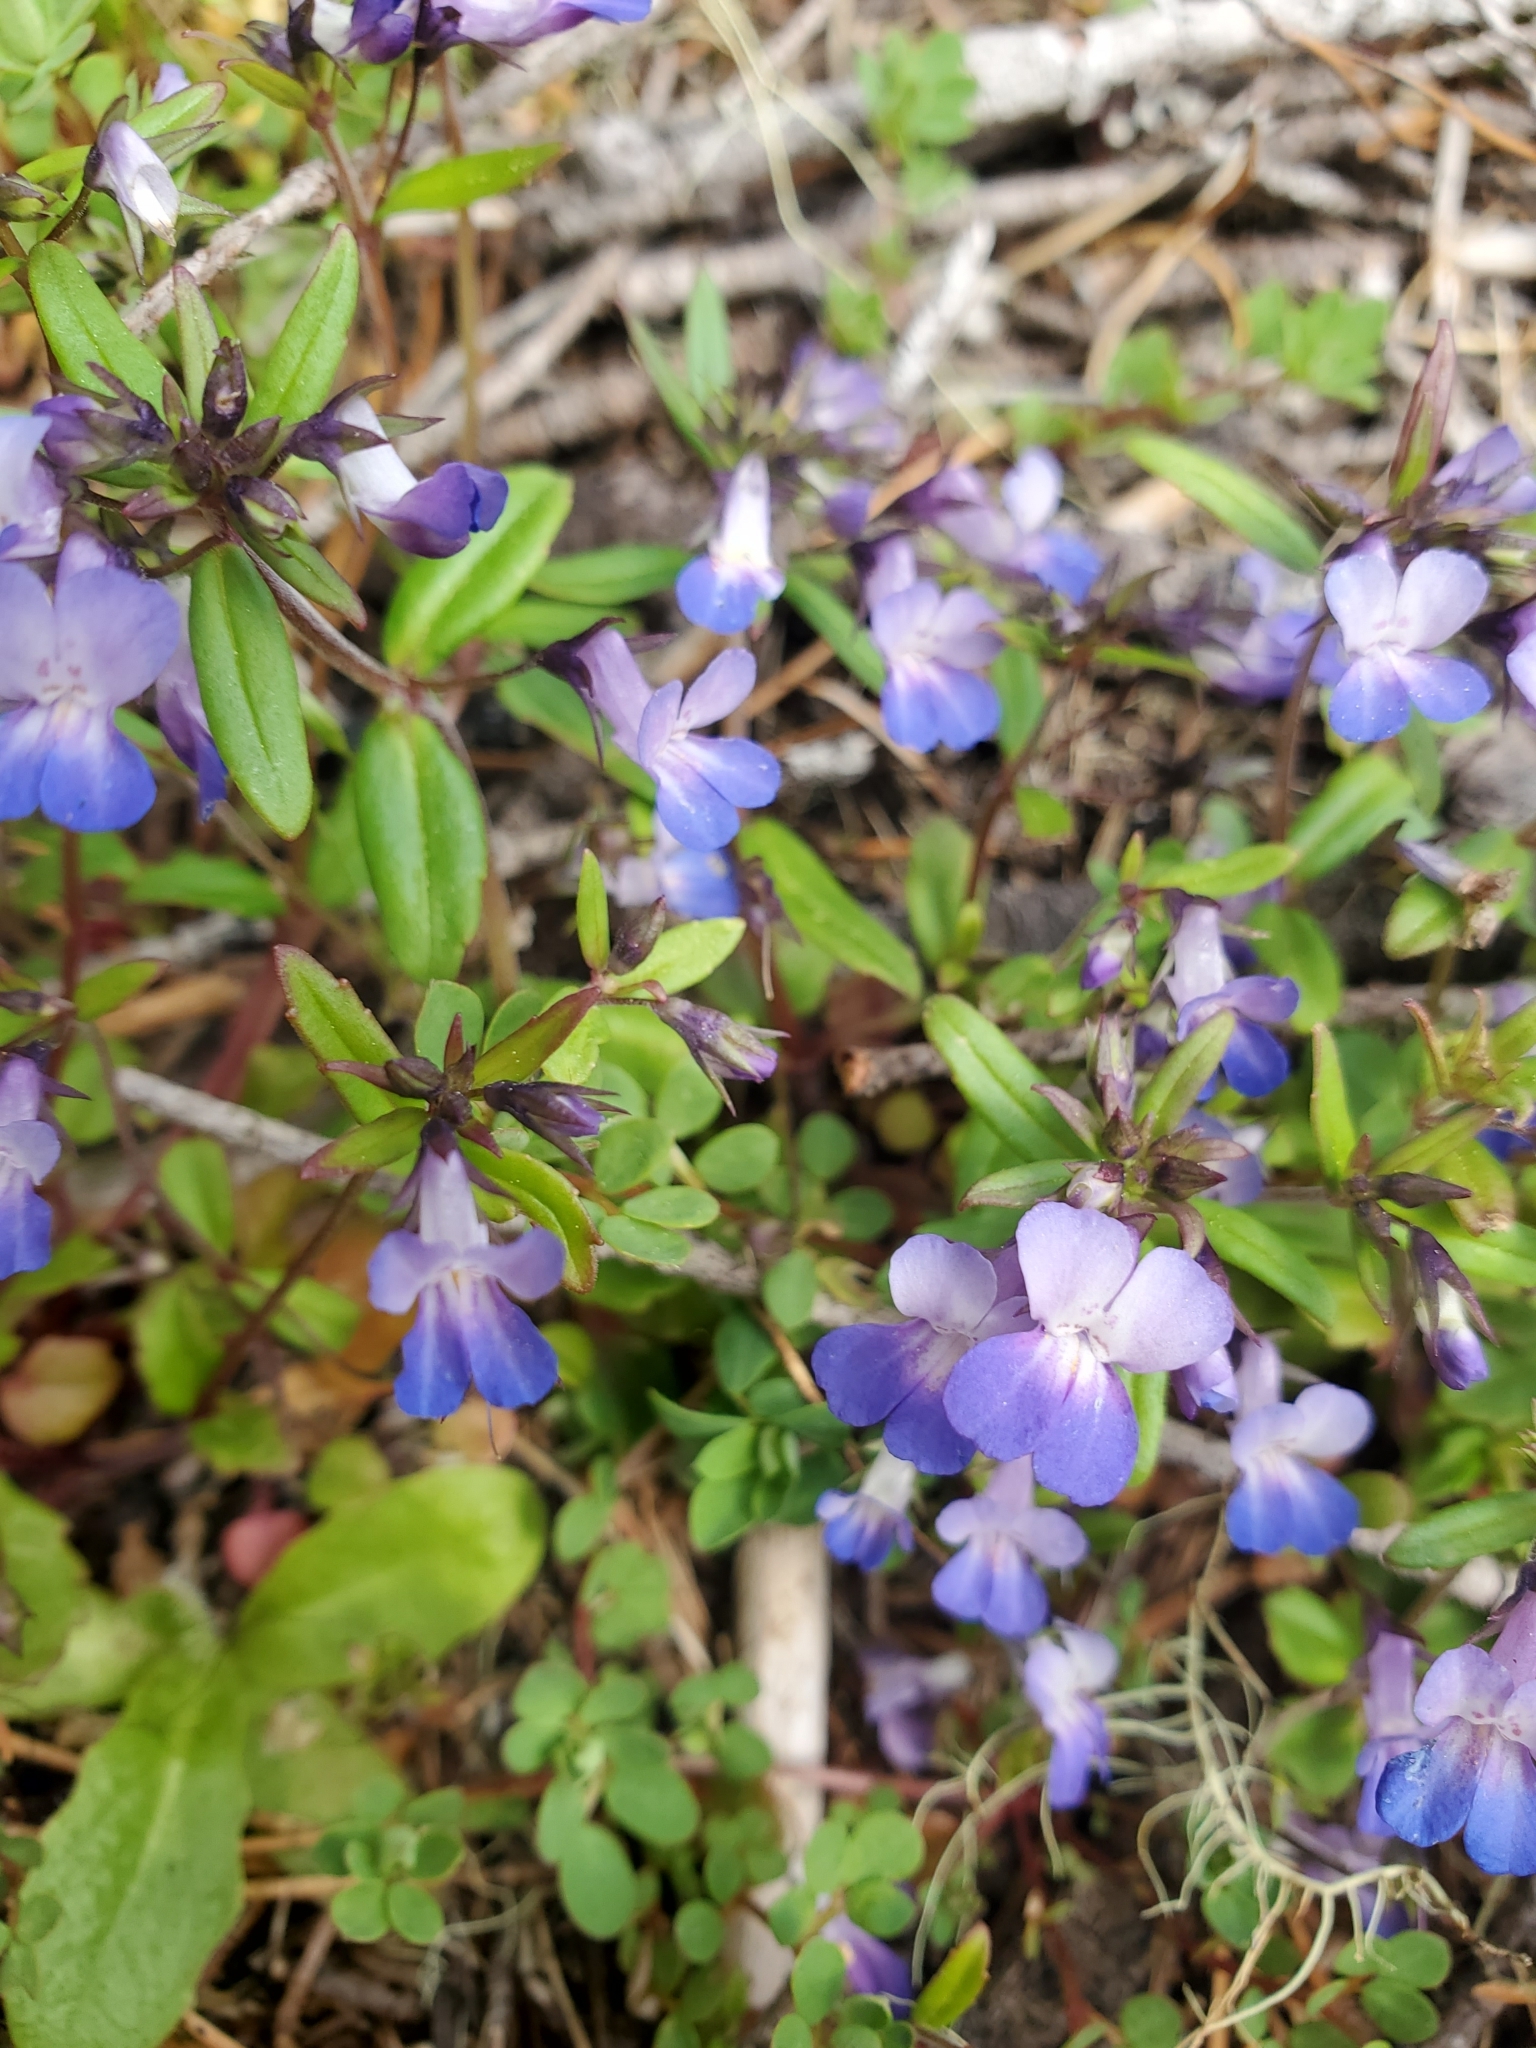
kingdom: Plantae
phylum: Tracheophyta
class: Magnoliopsida
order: Lamiales
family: Plantaginaceae
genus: Collinsia
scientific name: Collinsia grandiflora
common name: Large-flower blue-eyed-mary
